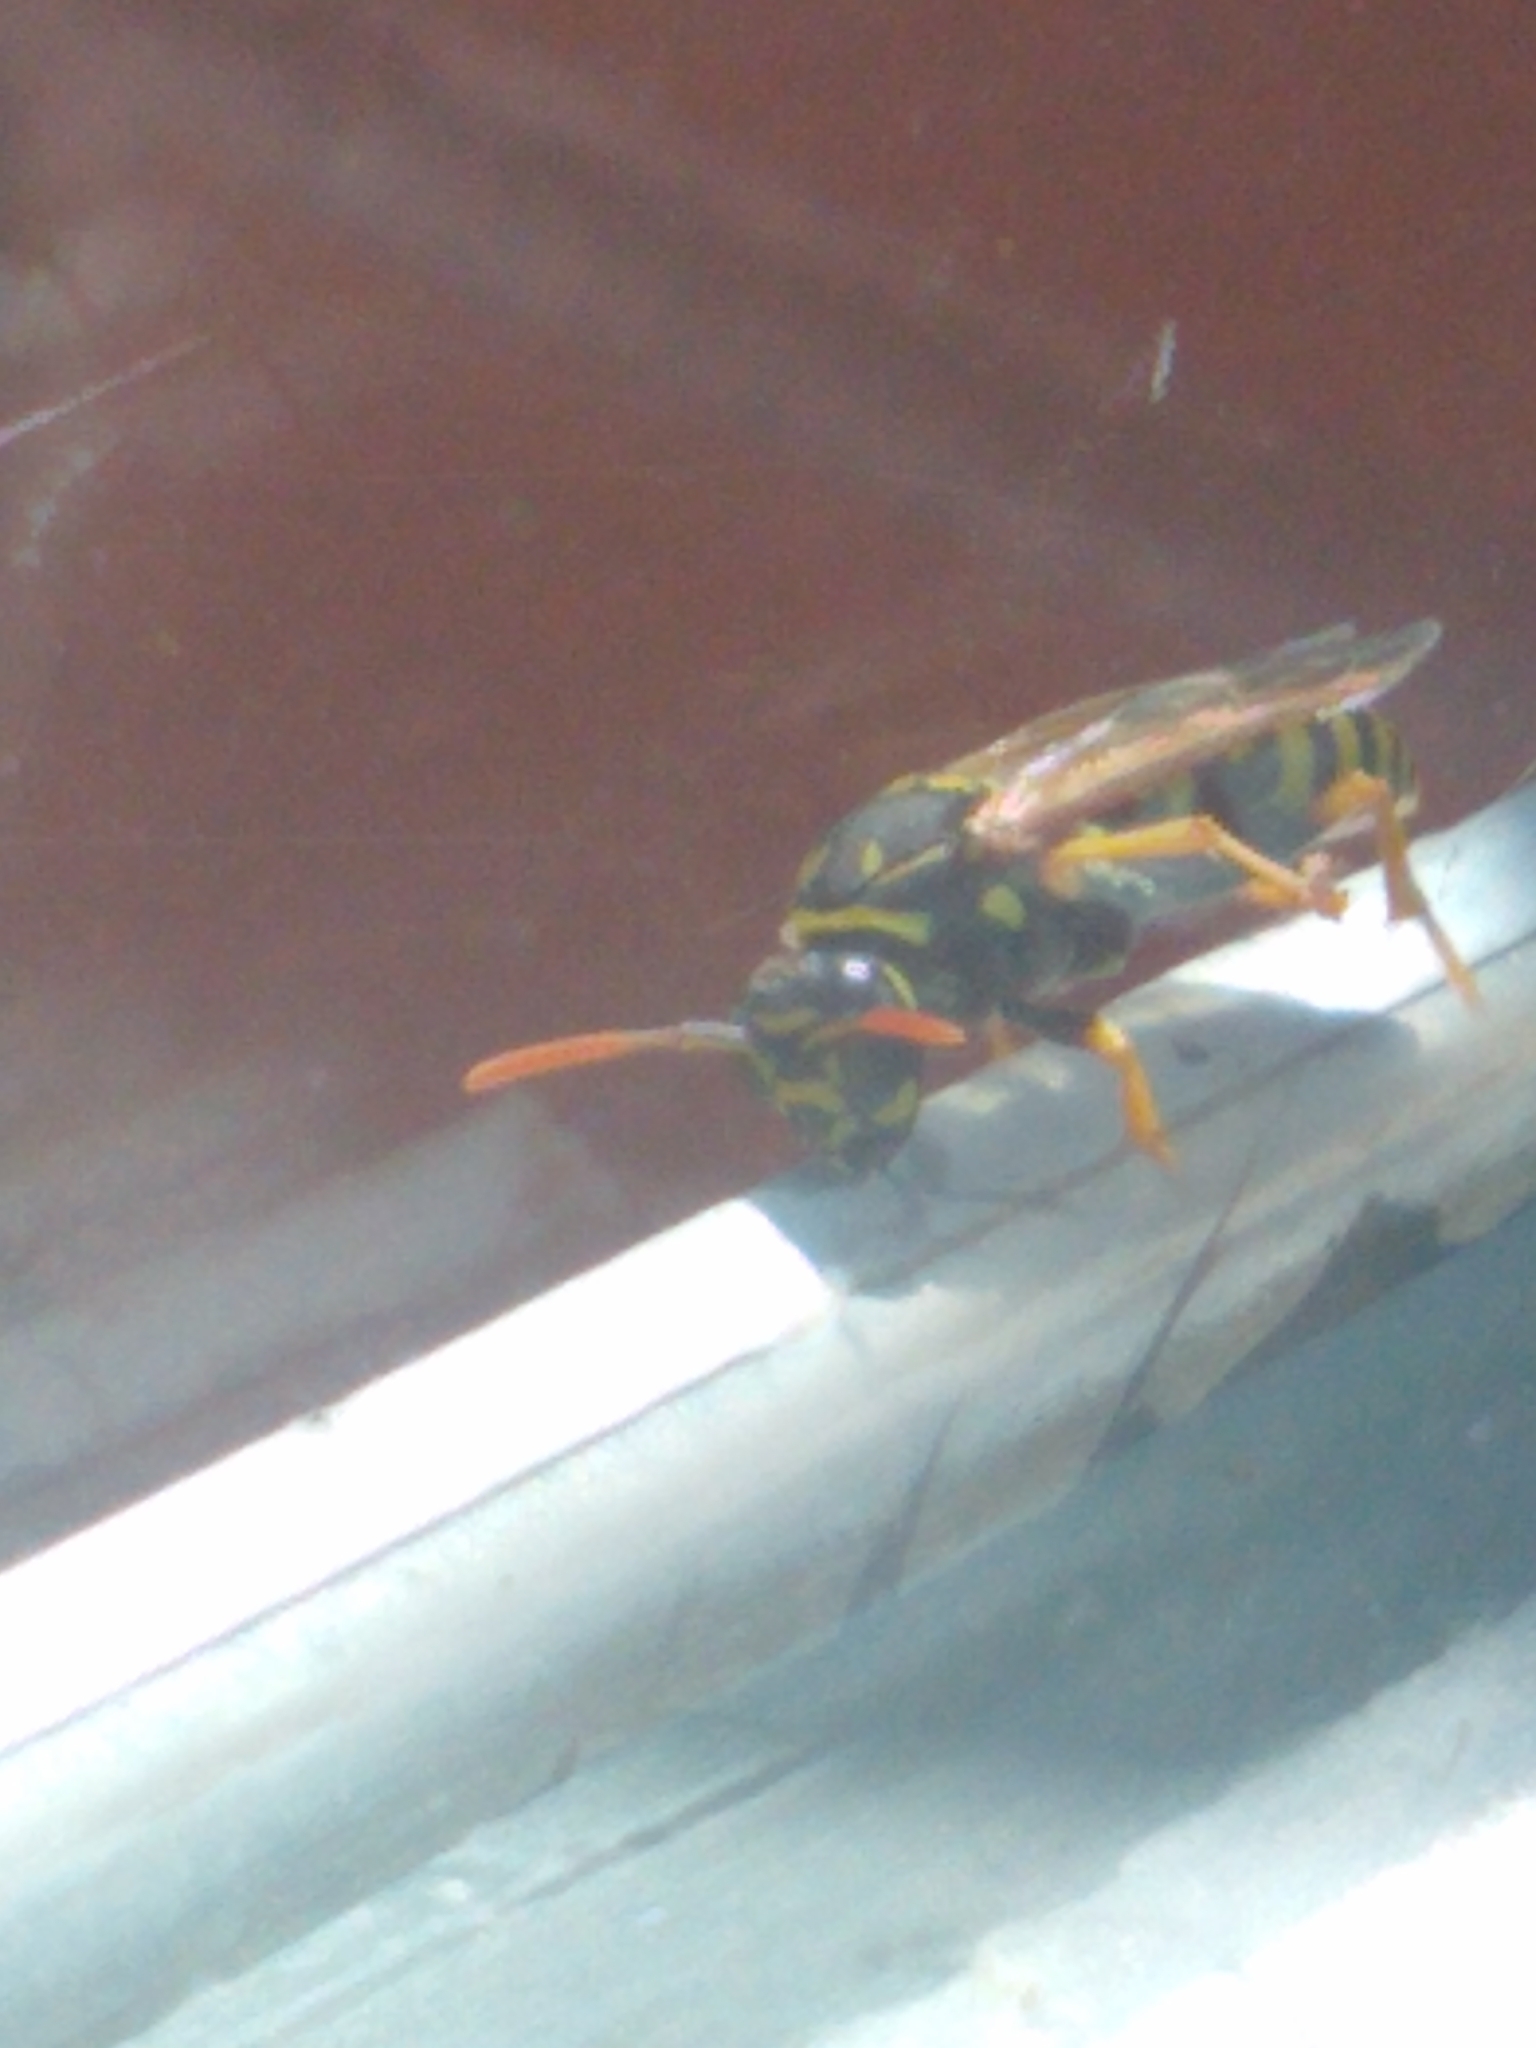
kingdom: Animalia
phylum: Arthropoda
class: Insecta
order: Hymenoptera
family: Eumenidae
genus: Polistes
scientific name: Polistes dominula
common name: Paper wasp
